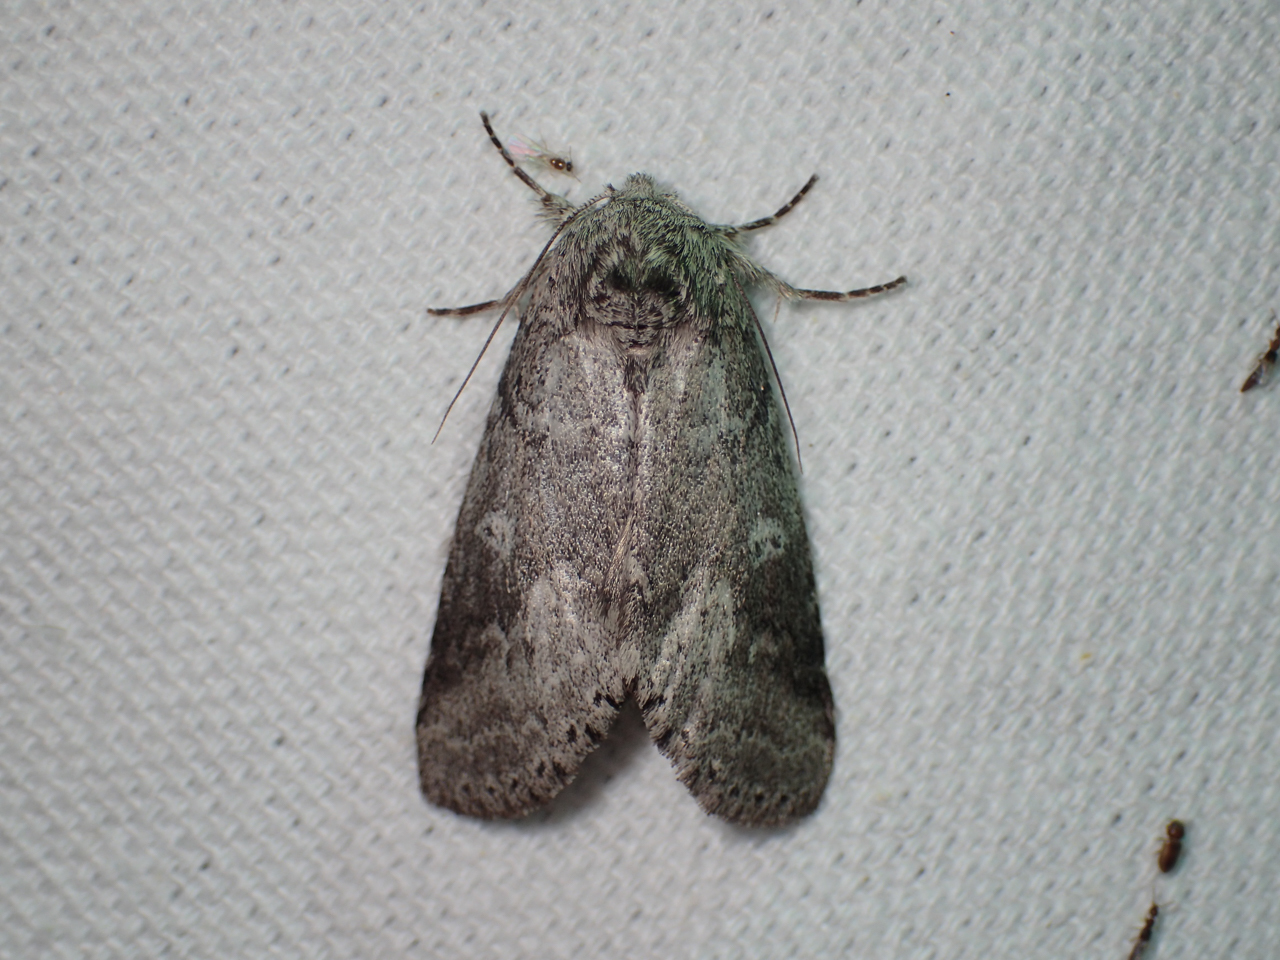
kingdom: Animalia
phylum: Arthropoda
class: Insecta
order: Lepidoptera
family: Notodontidae
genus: Lochmaeus
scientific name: Lochmaeus manteo
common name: Variable oakleaf caterpillar moth
